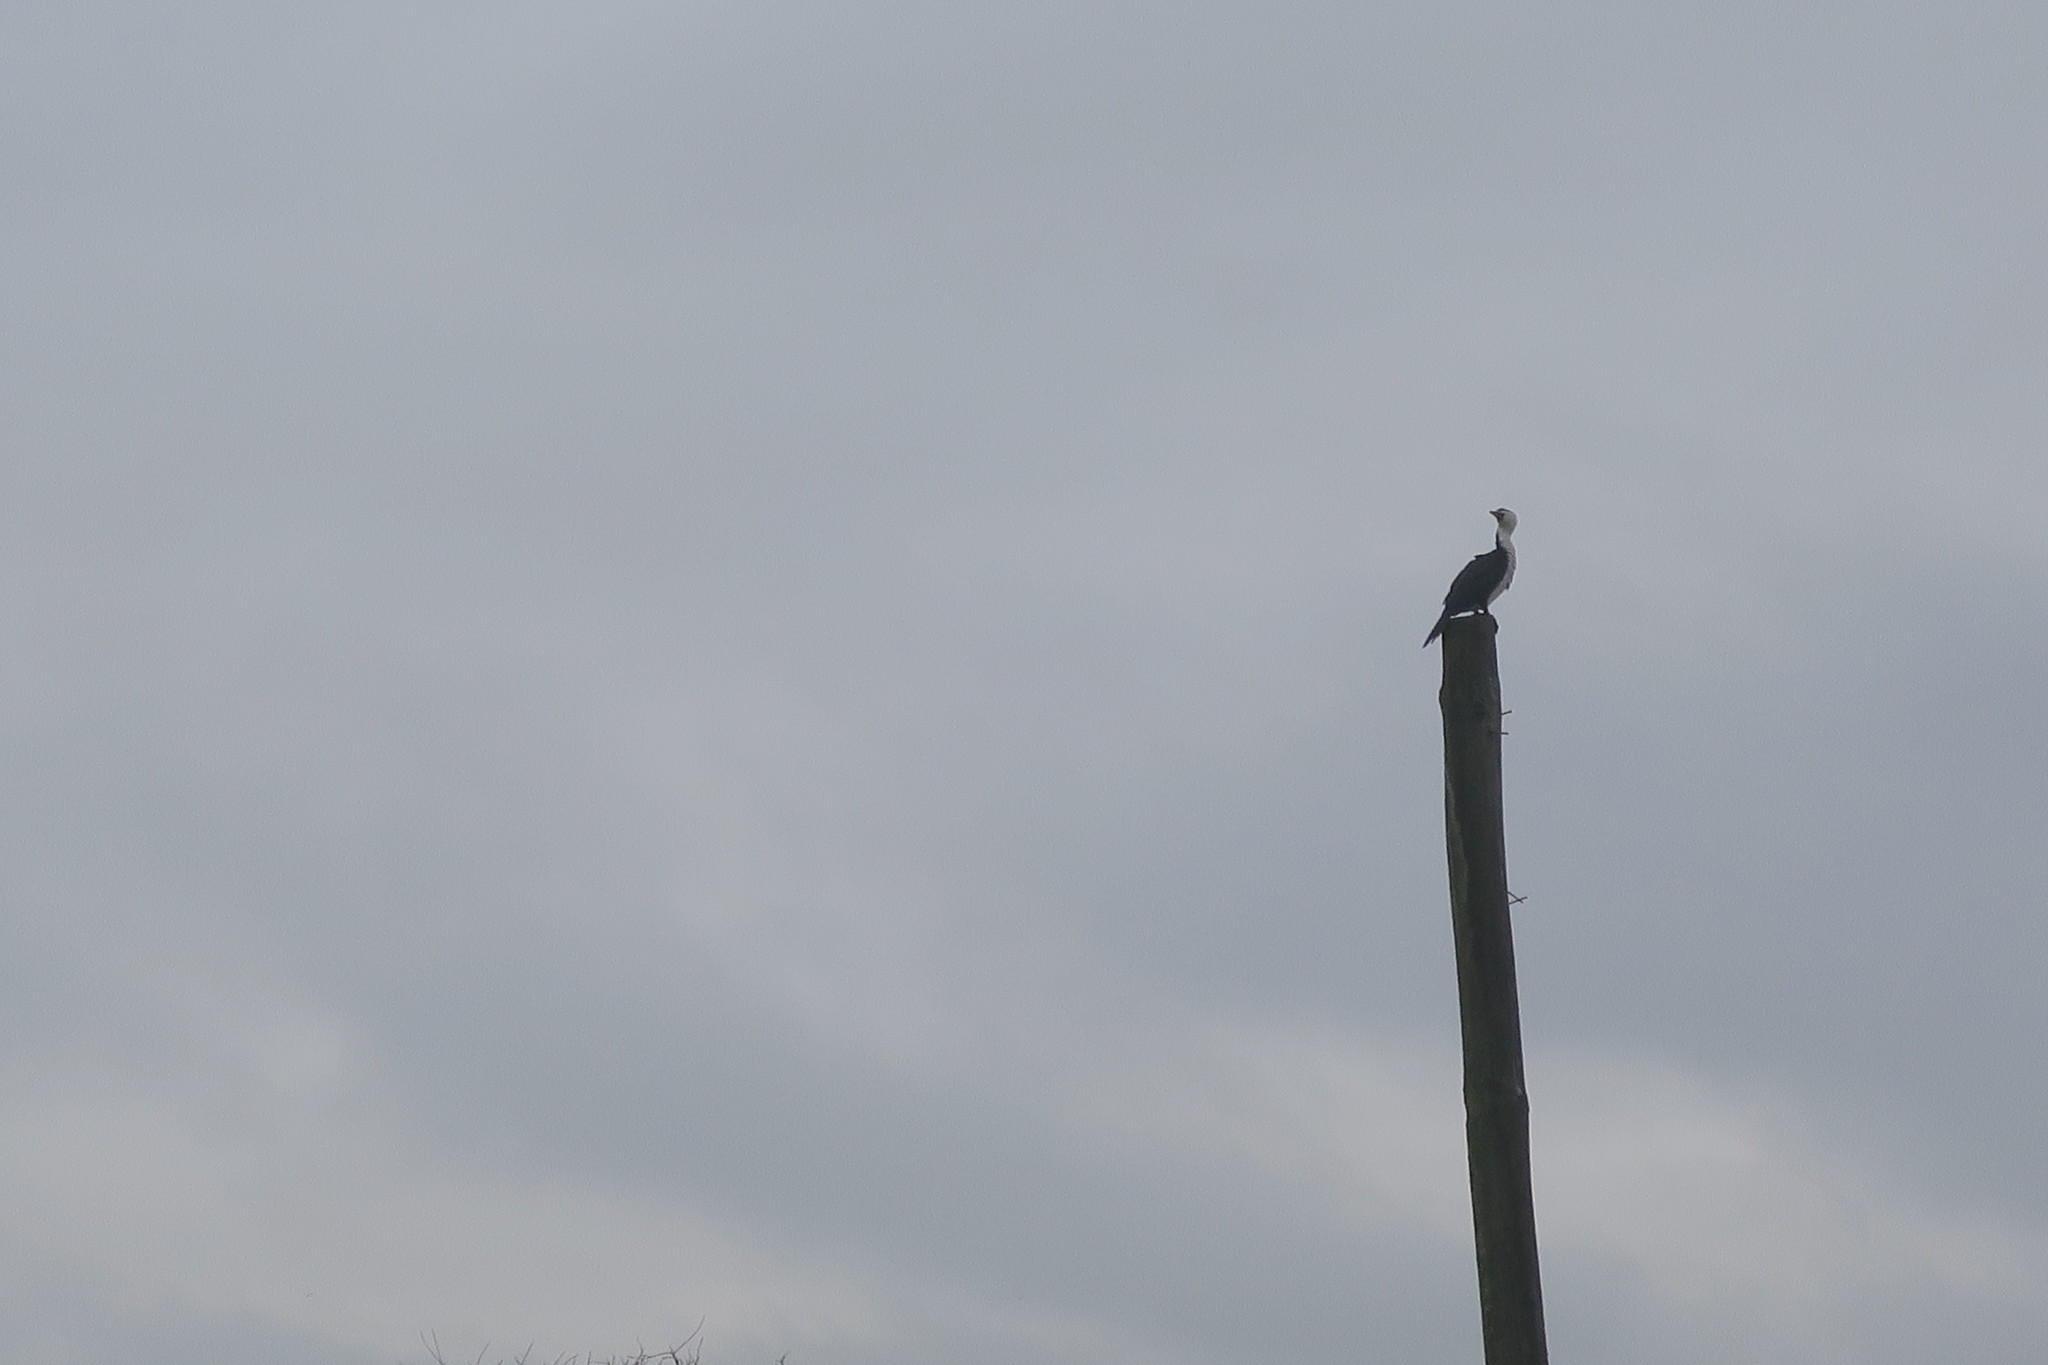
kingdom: Animalia
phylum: Chordata
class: Aves
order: Suliformes
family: Phalacrocoracidae
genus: Microcarbo
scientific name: Microcarbo melanoleucos
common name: Little pied cormorant
